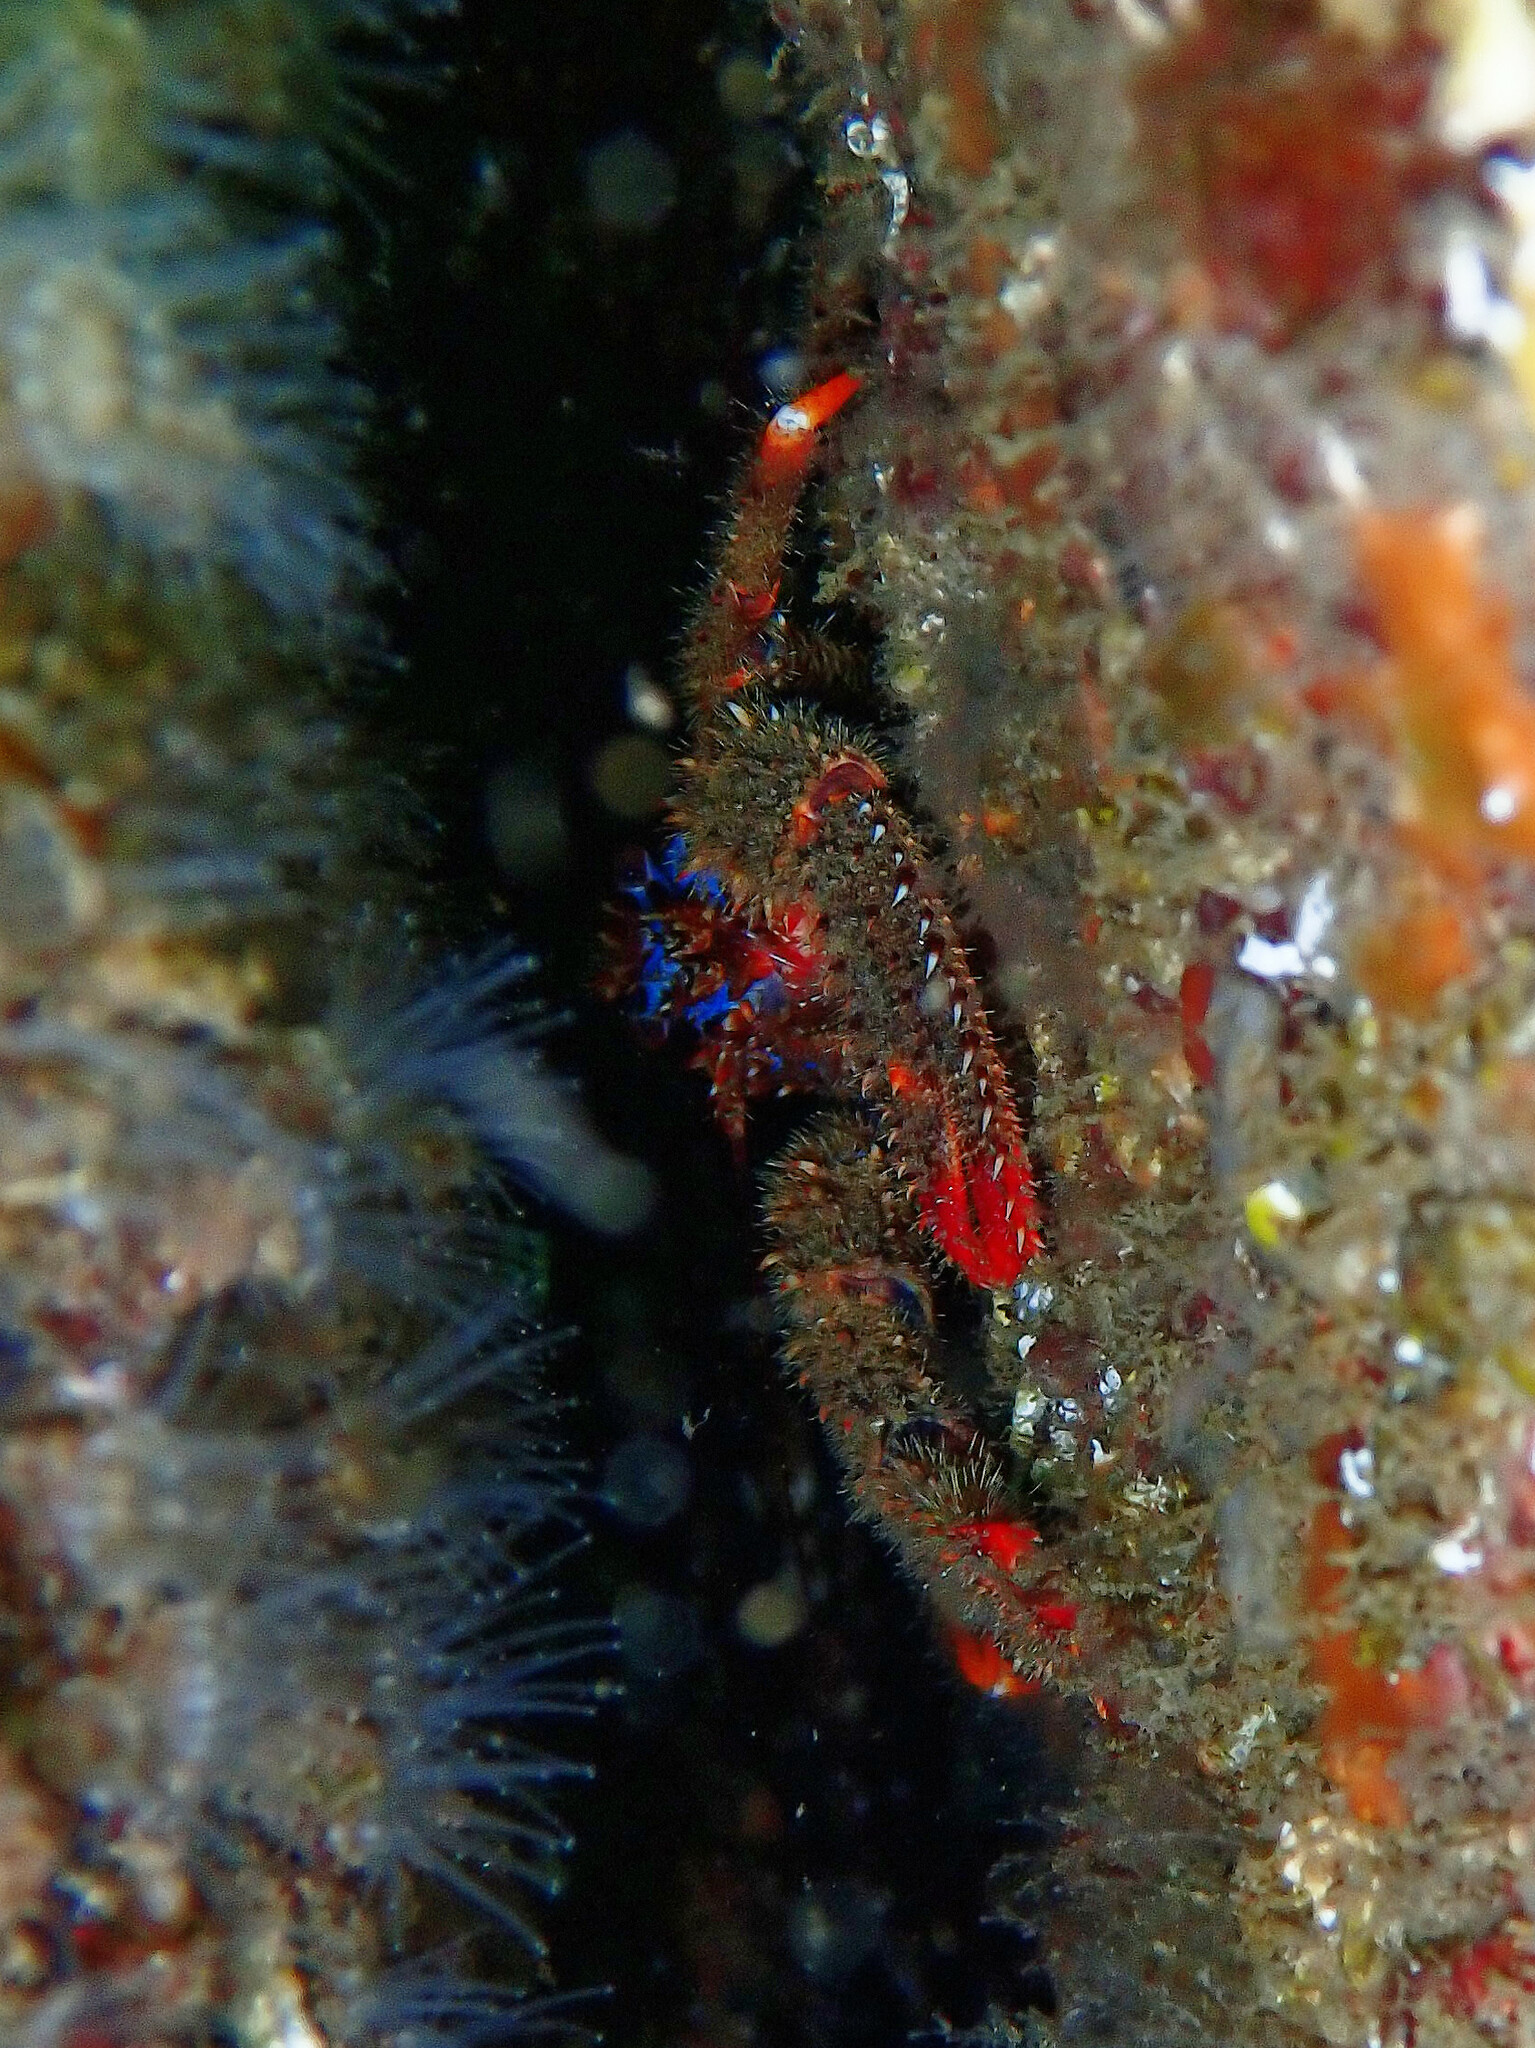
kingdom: Animalia
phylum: Arthropoda
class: Malacostraca
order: Decapoda
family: Galatheidae
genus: Galathea
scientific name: Galathea strigosa
